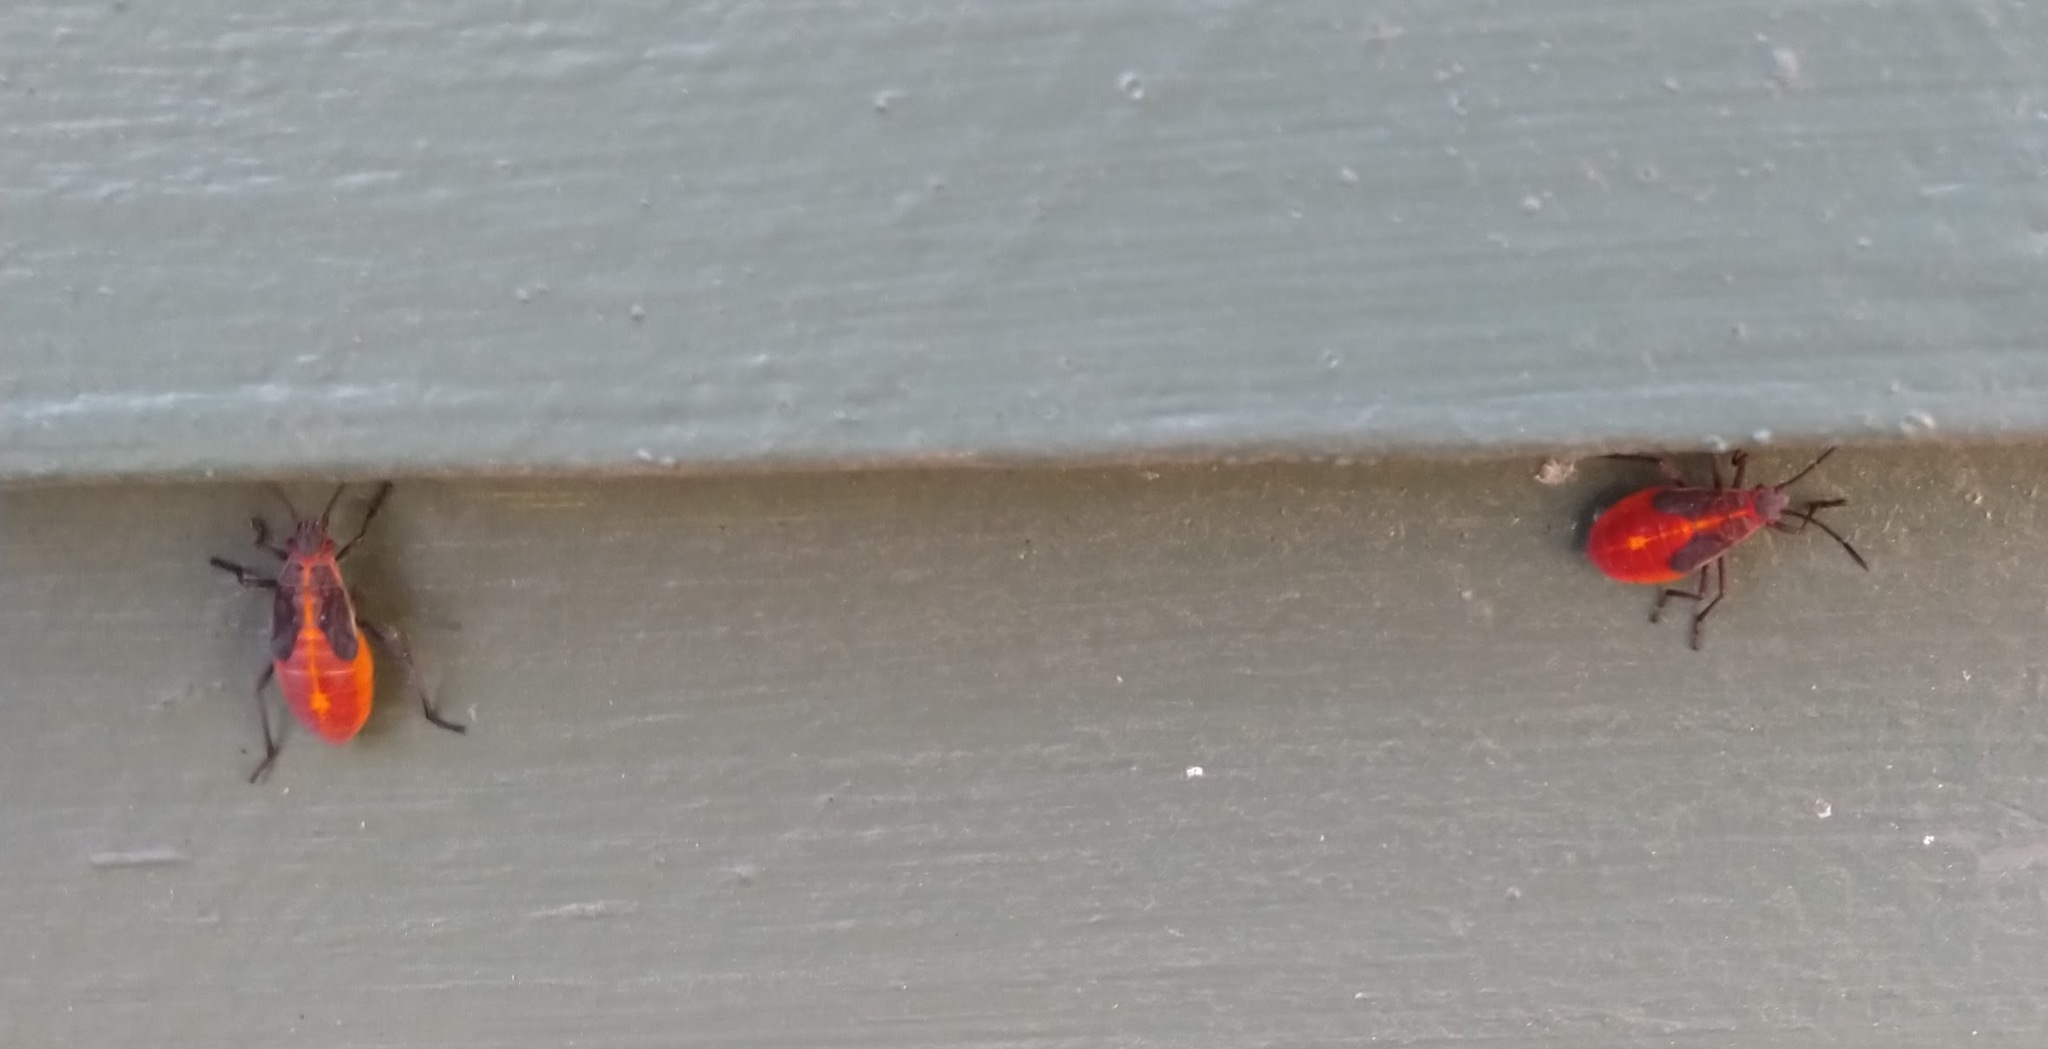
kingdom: Animalia
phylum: Arthropoda
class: Insecta
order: Hemiptera
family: Rhopalidae
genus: Boisea
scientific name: Boisea trivittata
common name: Boxelder bug
